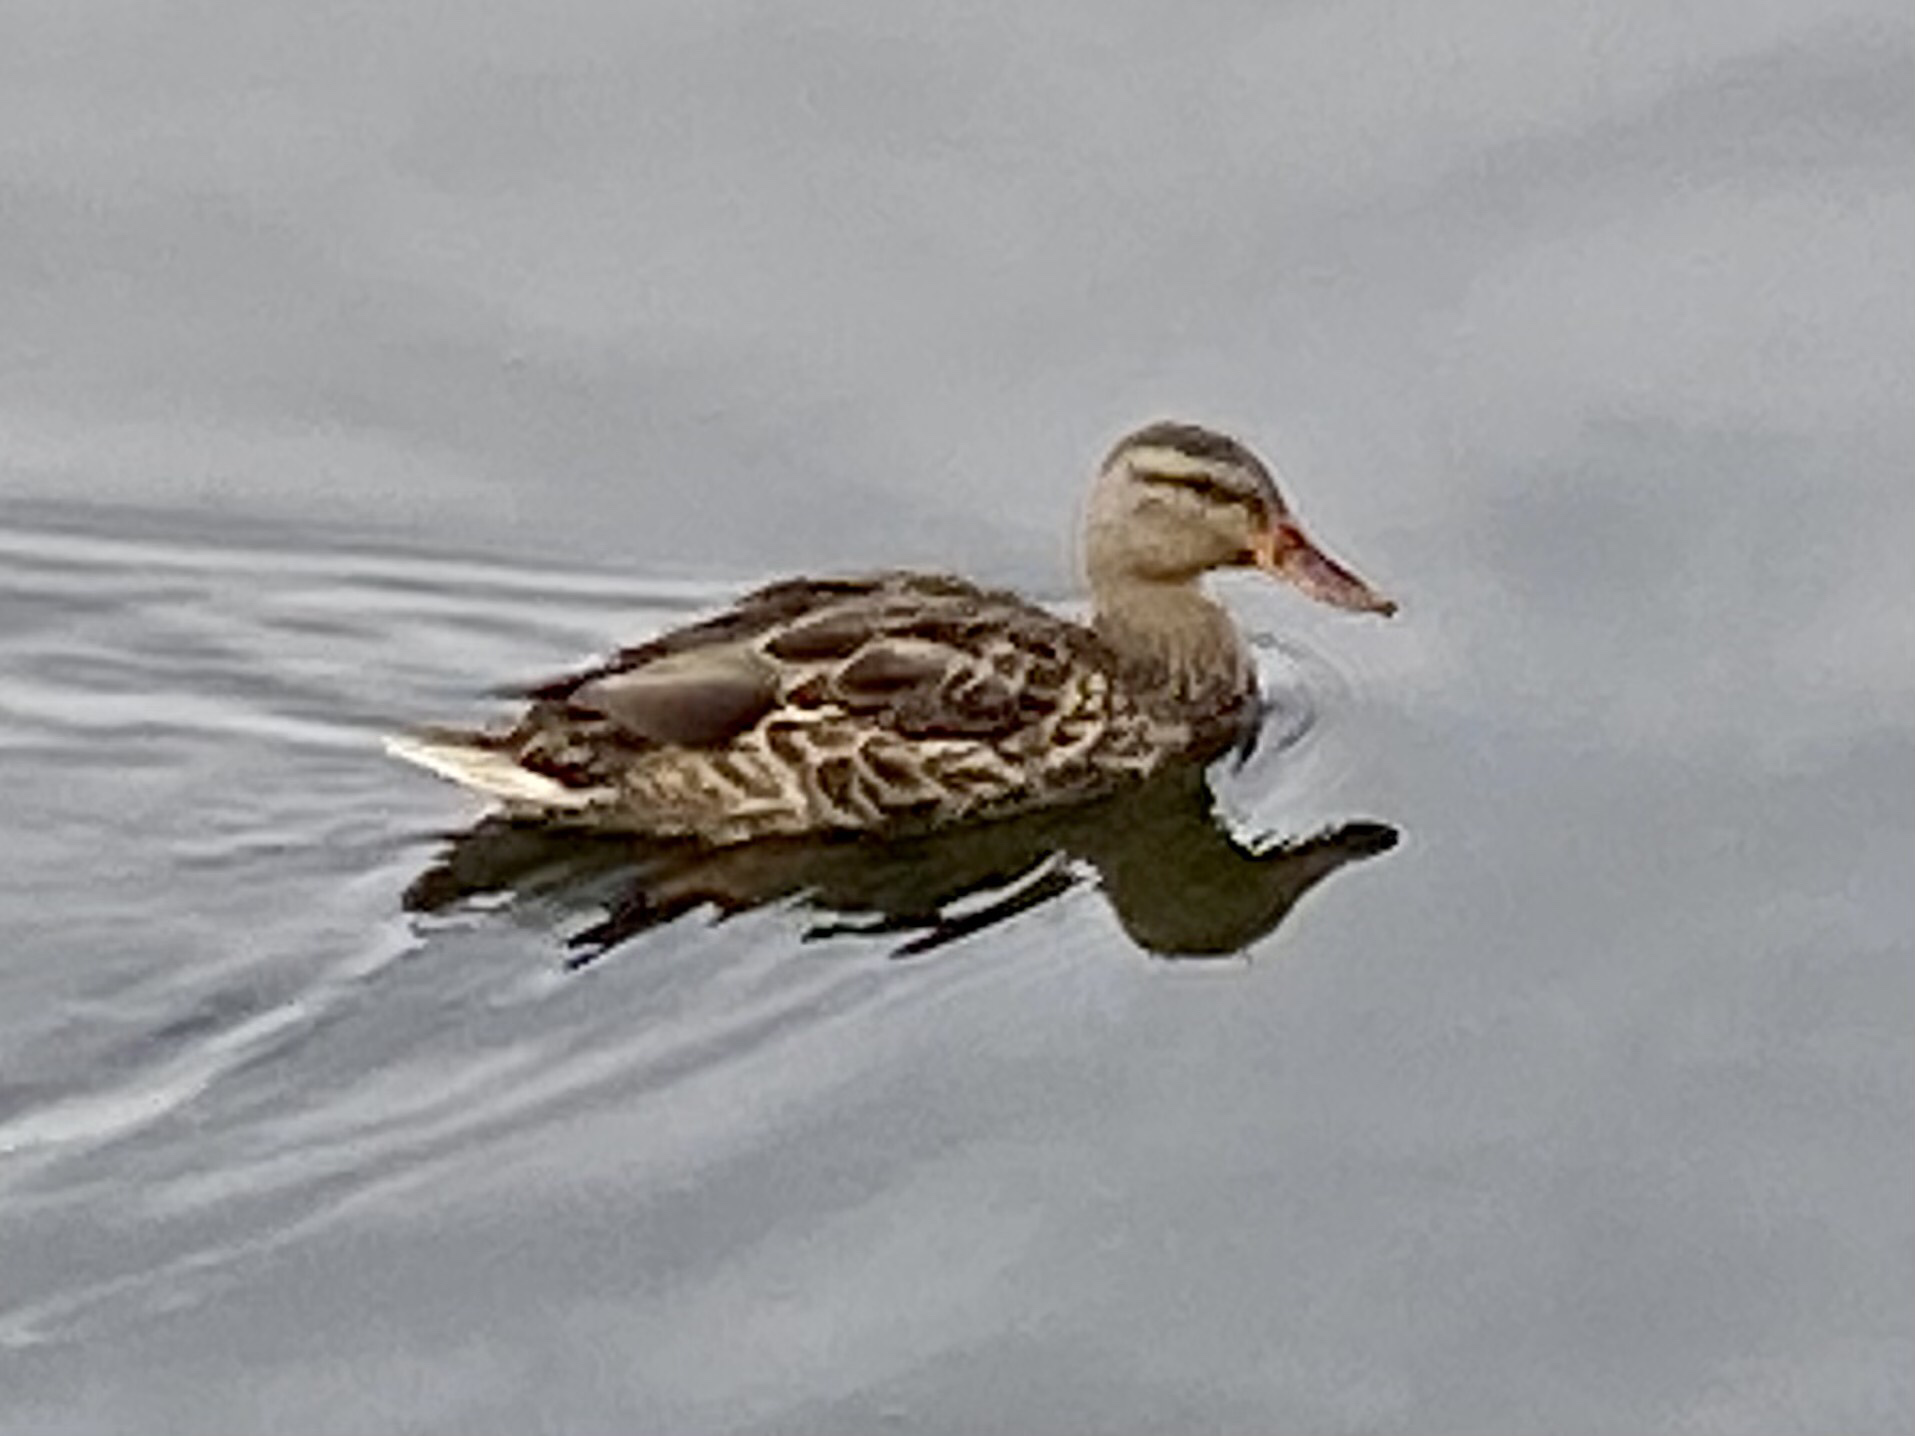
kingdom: Animalia
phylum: Chordata
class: Aves
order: Anseriformes
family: Anatidae
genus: Anas
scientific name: Anas platyrhynchos
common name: Mallard
